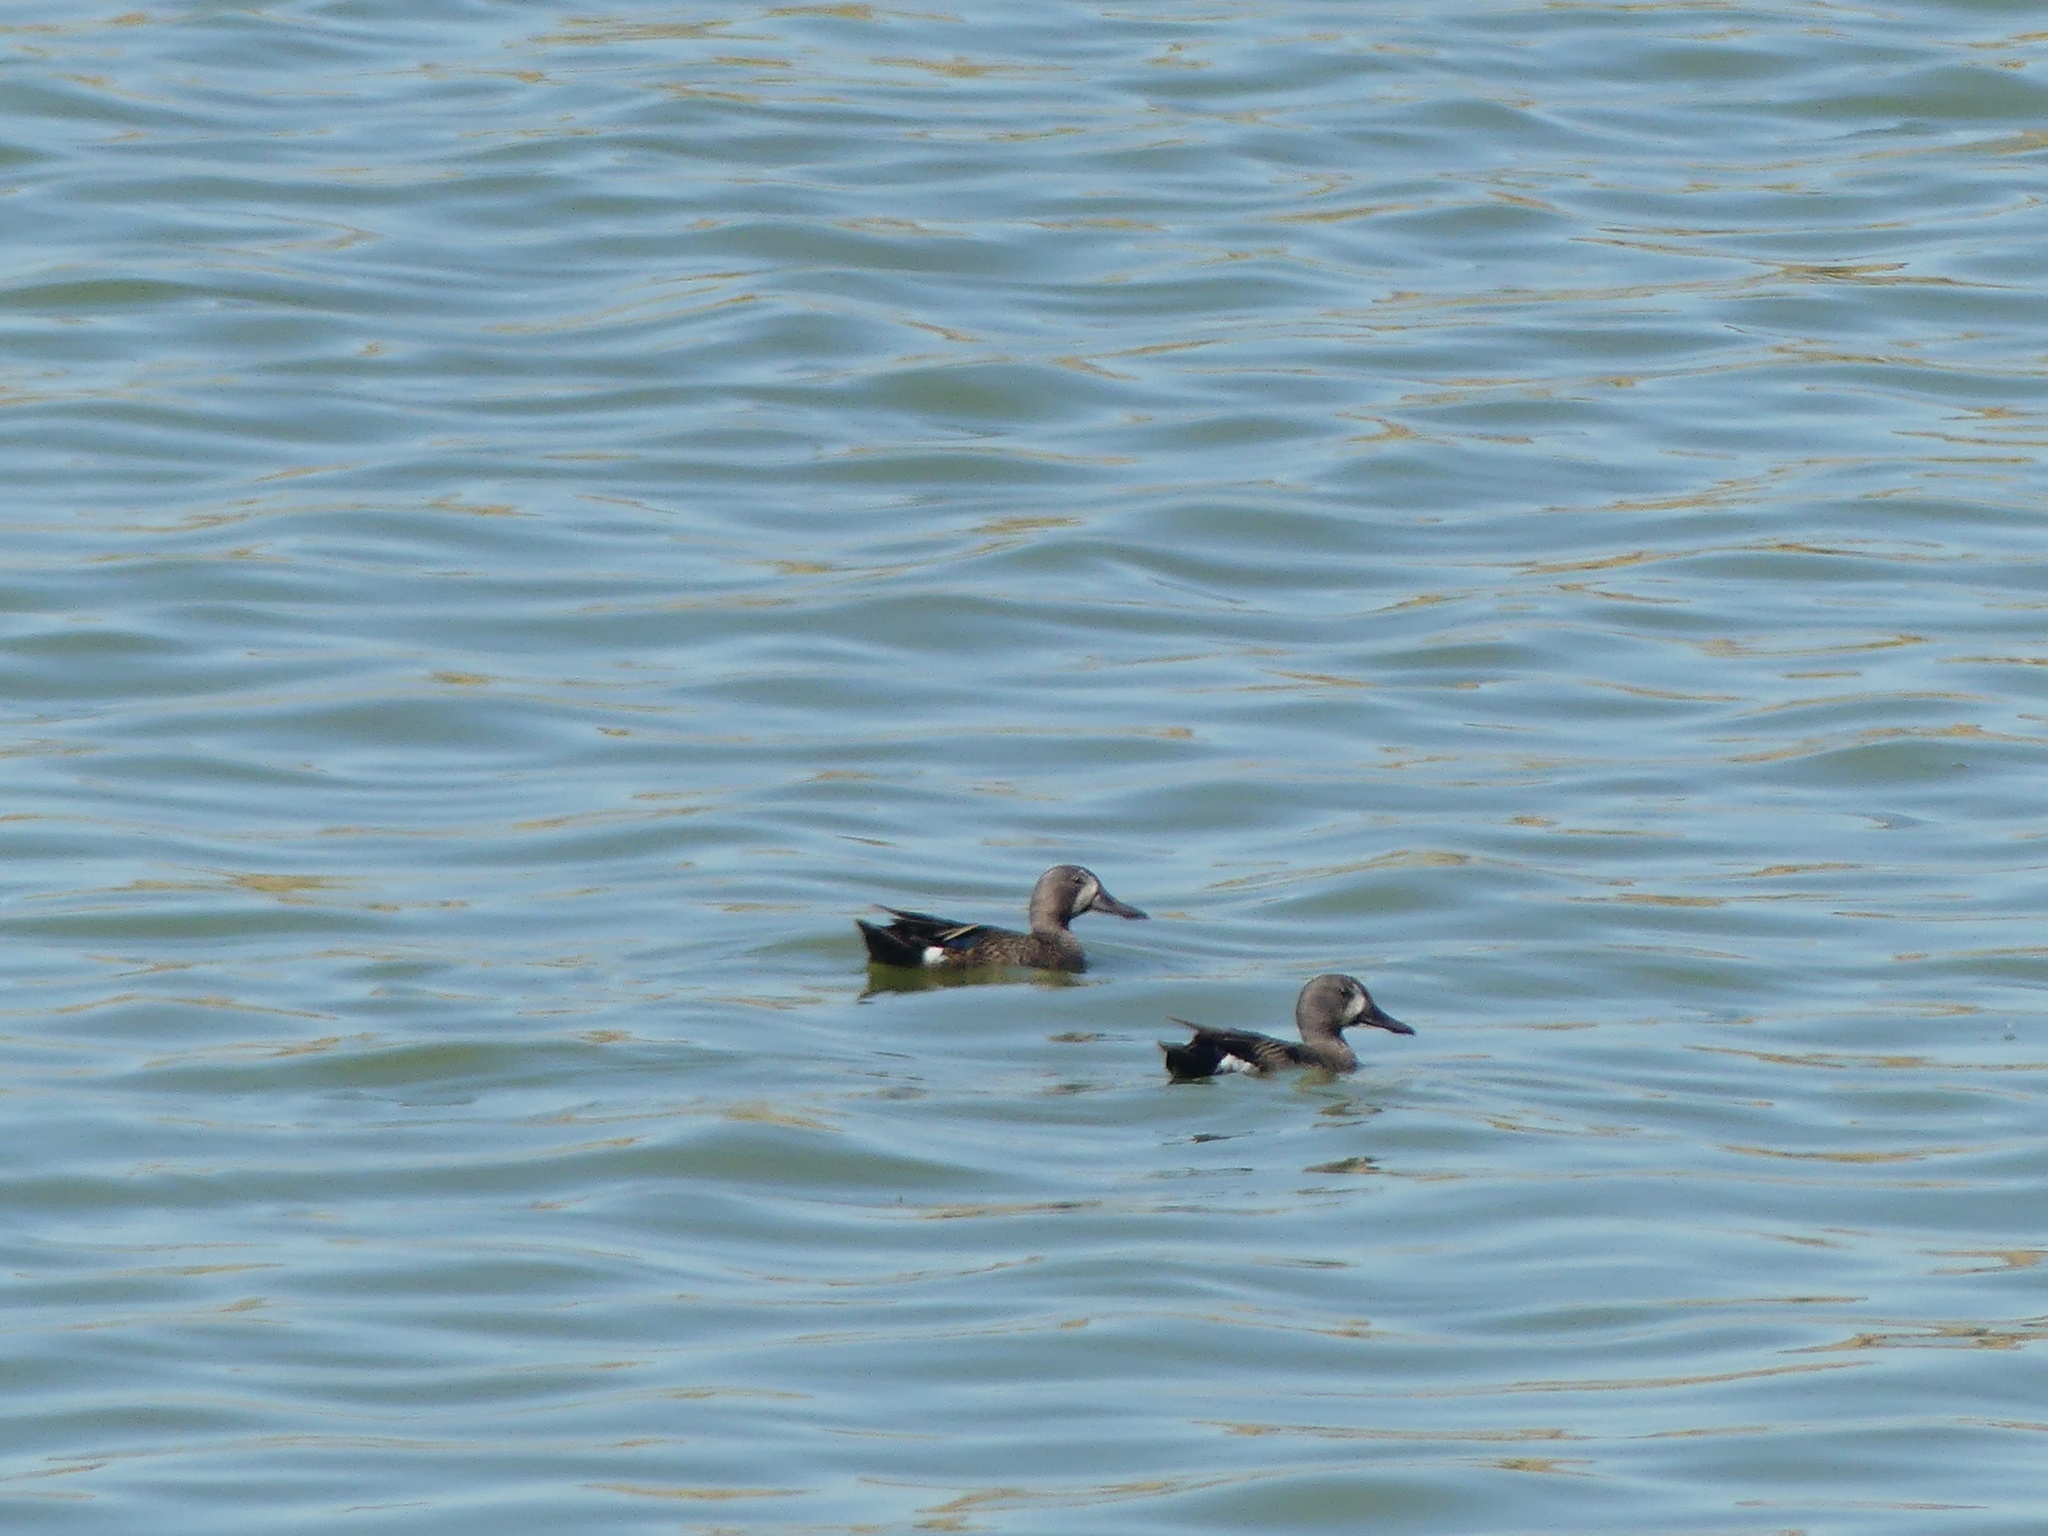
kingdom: Animalia
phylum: Chordata
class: Aves
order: Anseriformes
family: Anatidae
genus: Spatula
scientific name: Spatula discors
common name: Blue-winged teal
